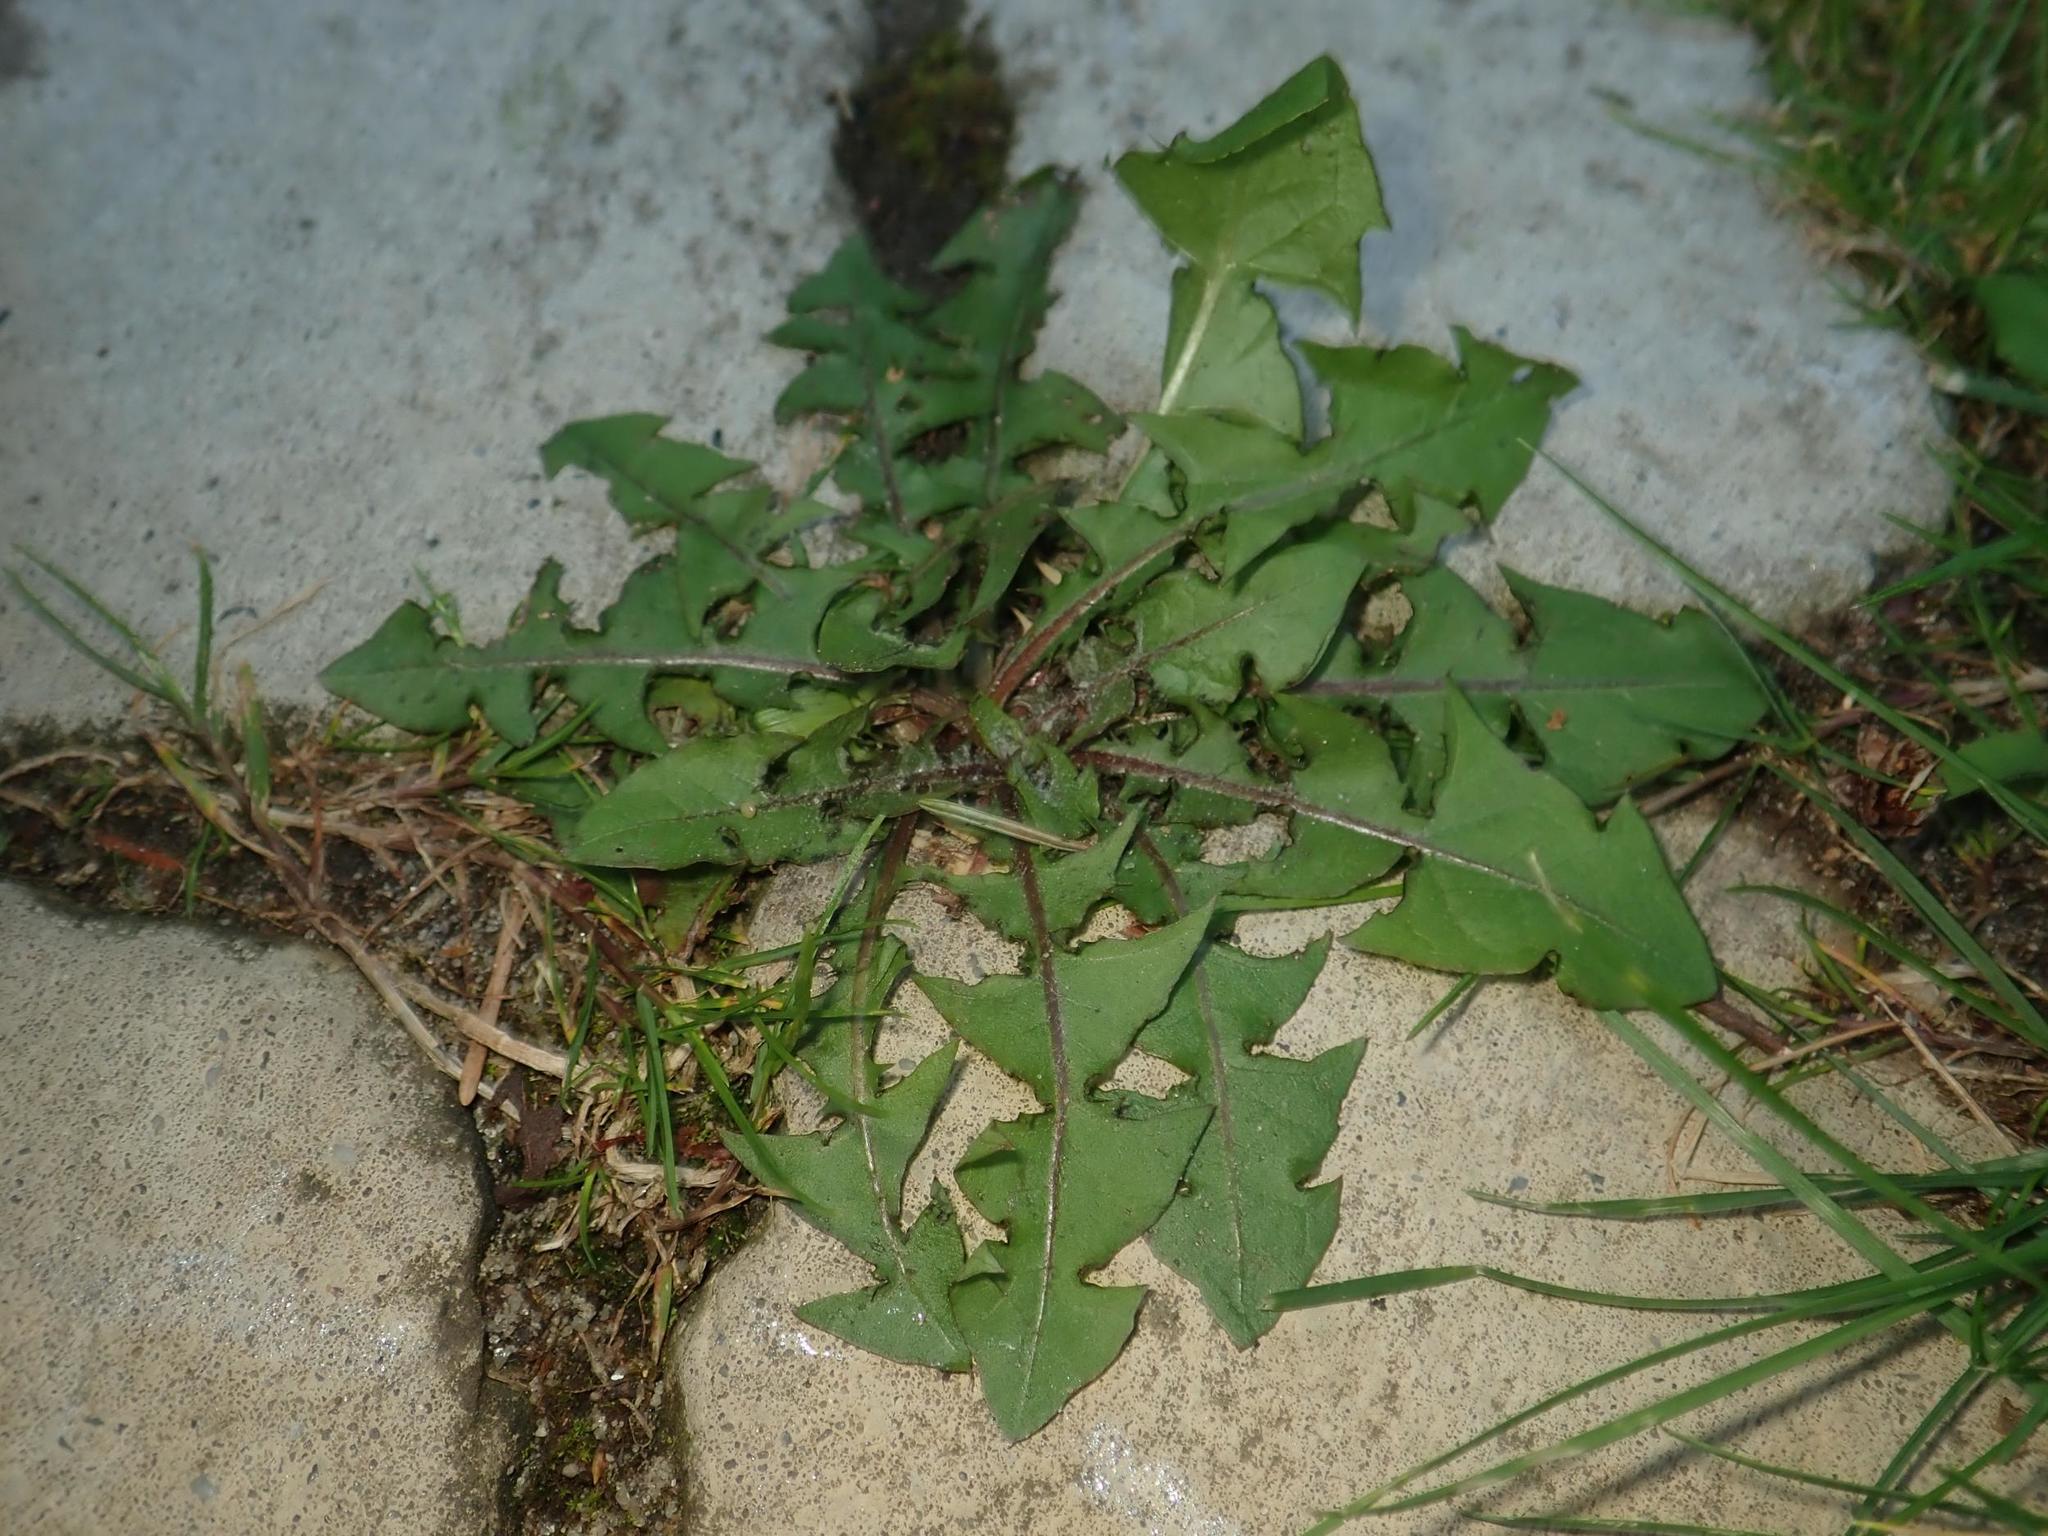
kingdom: Plantae
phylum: Tracheophyta
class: Magnoliopsida
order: Asterales
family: Asteraceae
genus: Taraxacum
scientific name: Taraxacum officinale
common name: Common dandelion
